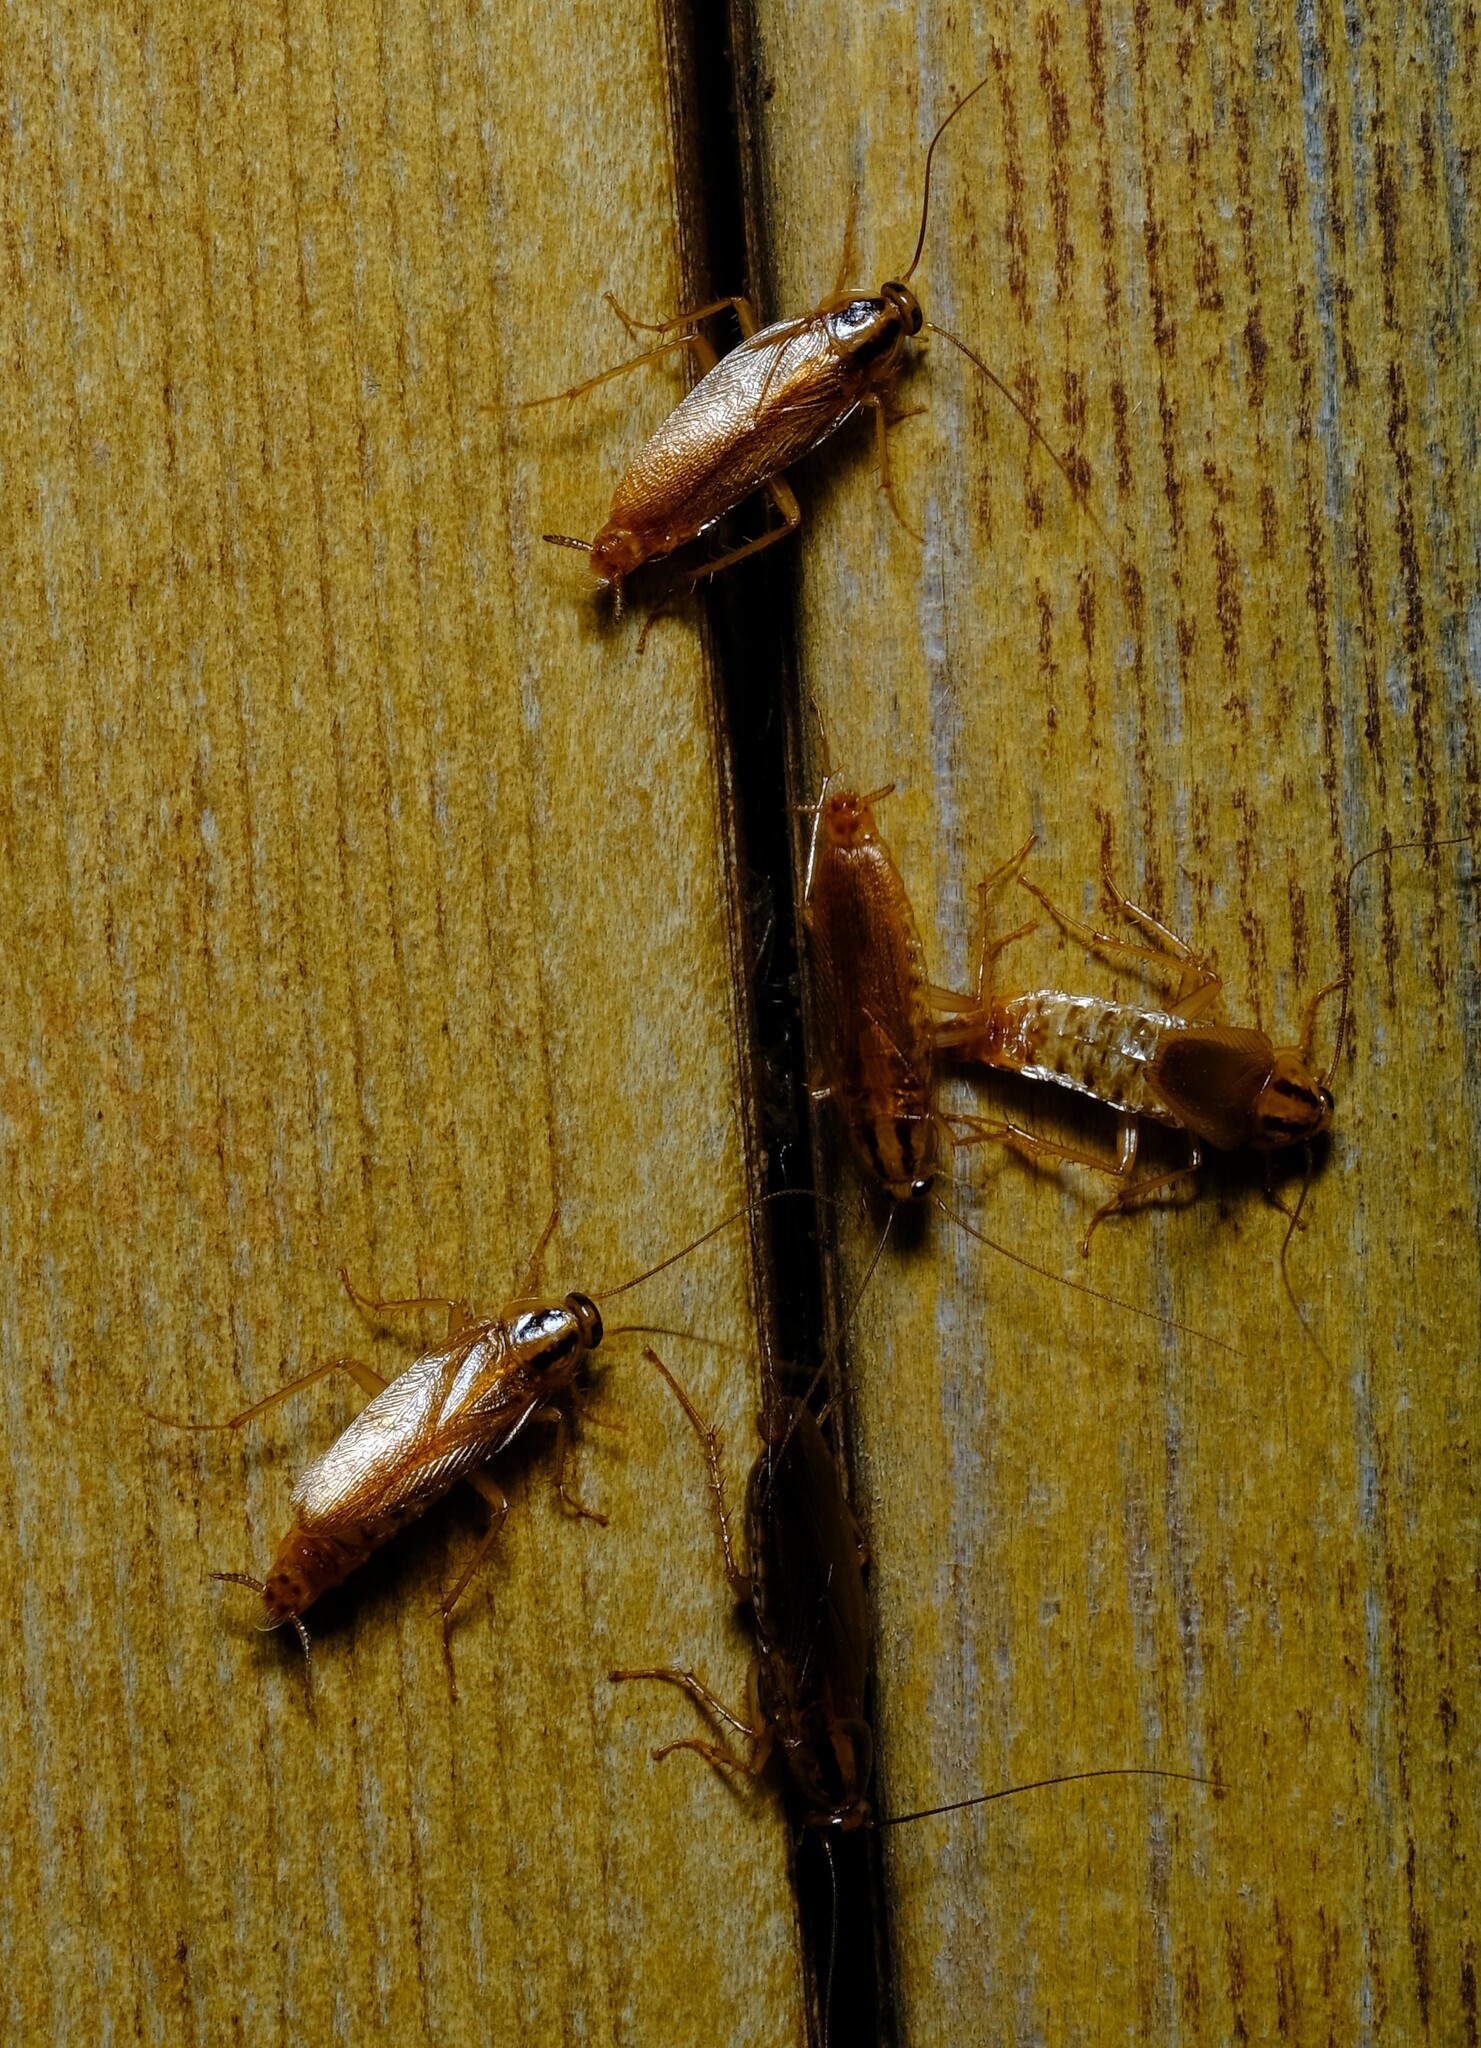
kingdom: Animalia
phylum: Arthropoda
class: Insecta
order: Blattodea
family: Ectobiidae
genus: Blattella
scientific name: Blattella germanica
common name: German cockroach
